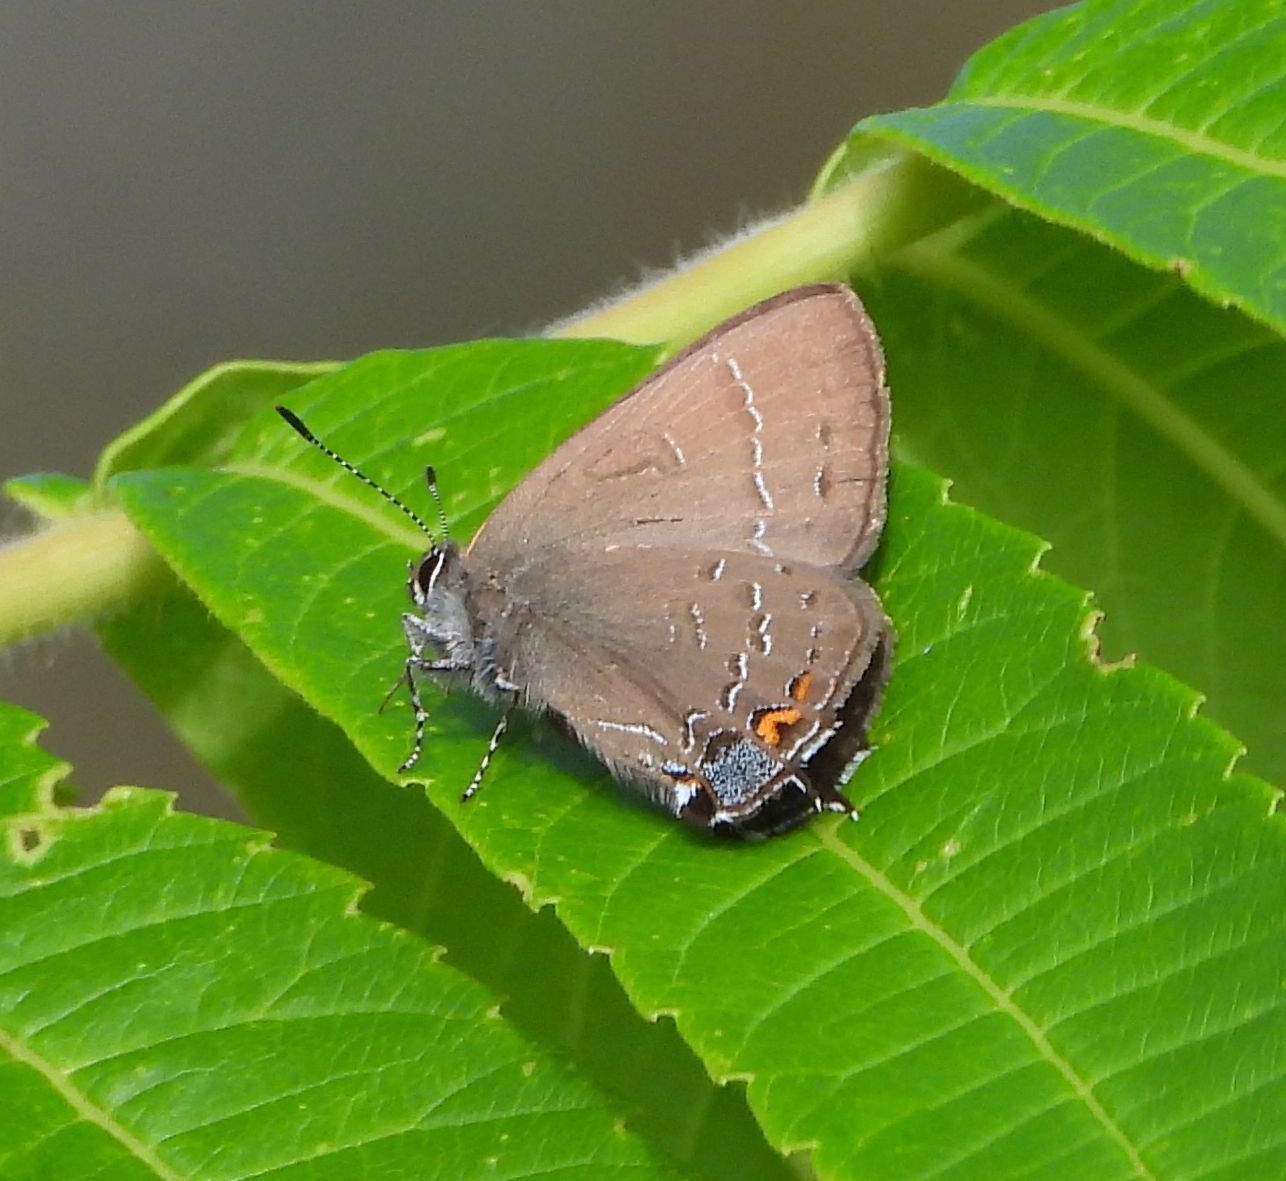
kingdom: Animalia
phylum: Arthropoda
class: Insecta
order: Lepidoptera
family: Lycaenidae
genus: Satyrium
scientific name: Satyrium calanus
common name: Banded hairstreak
